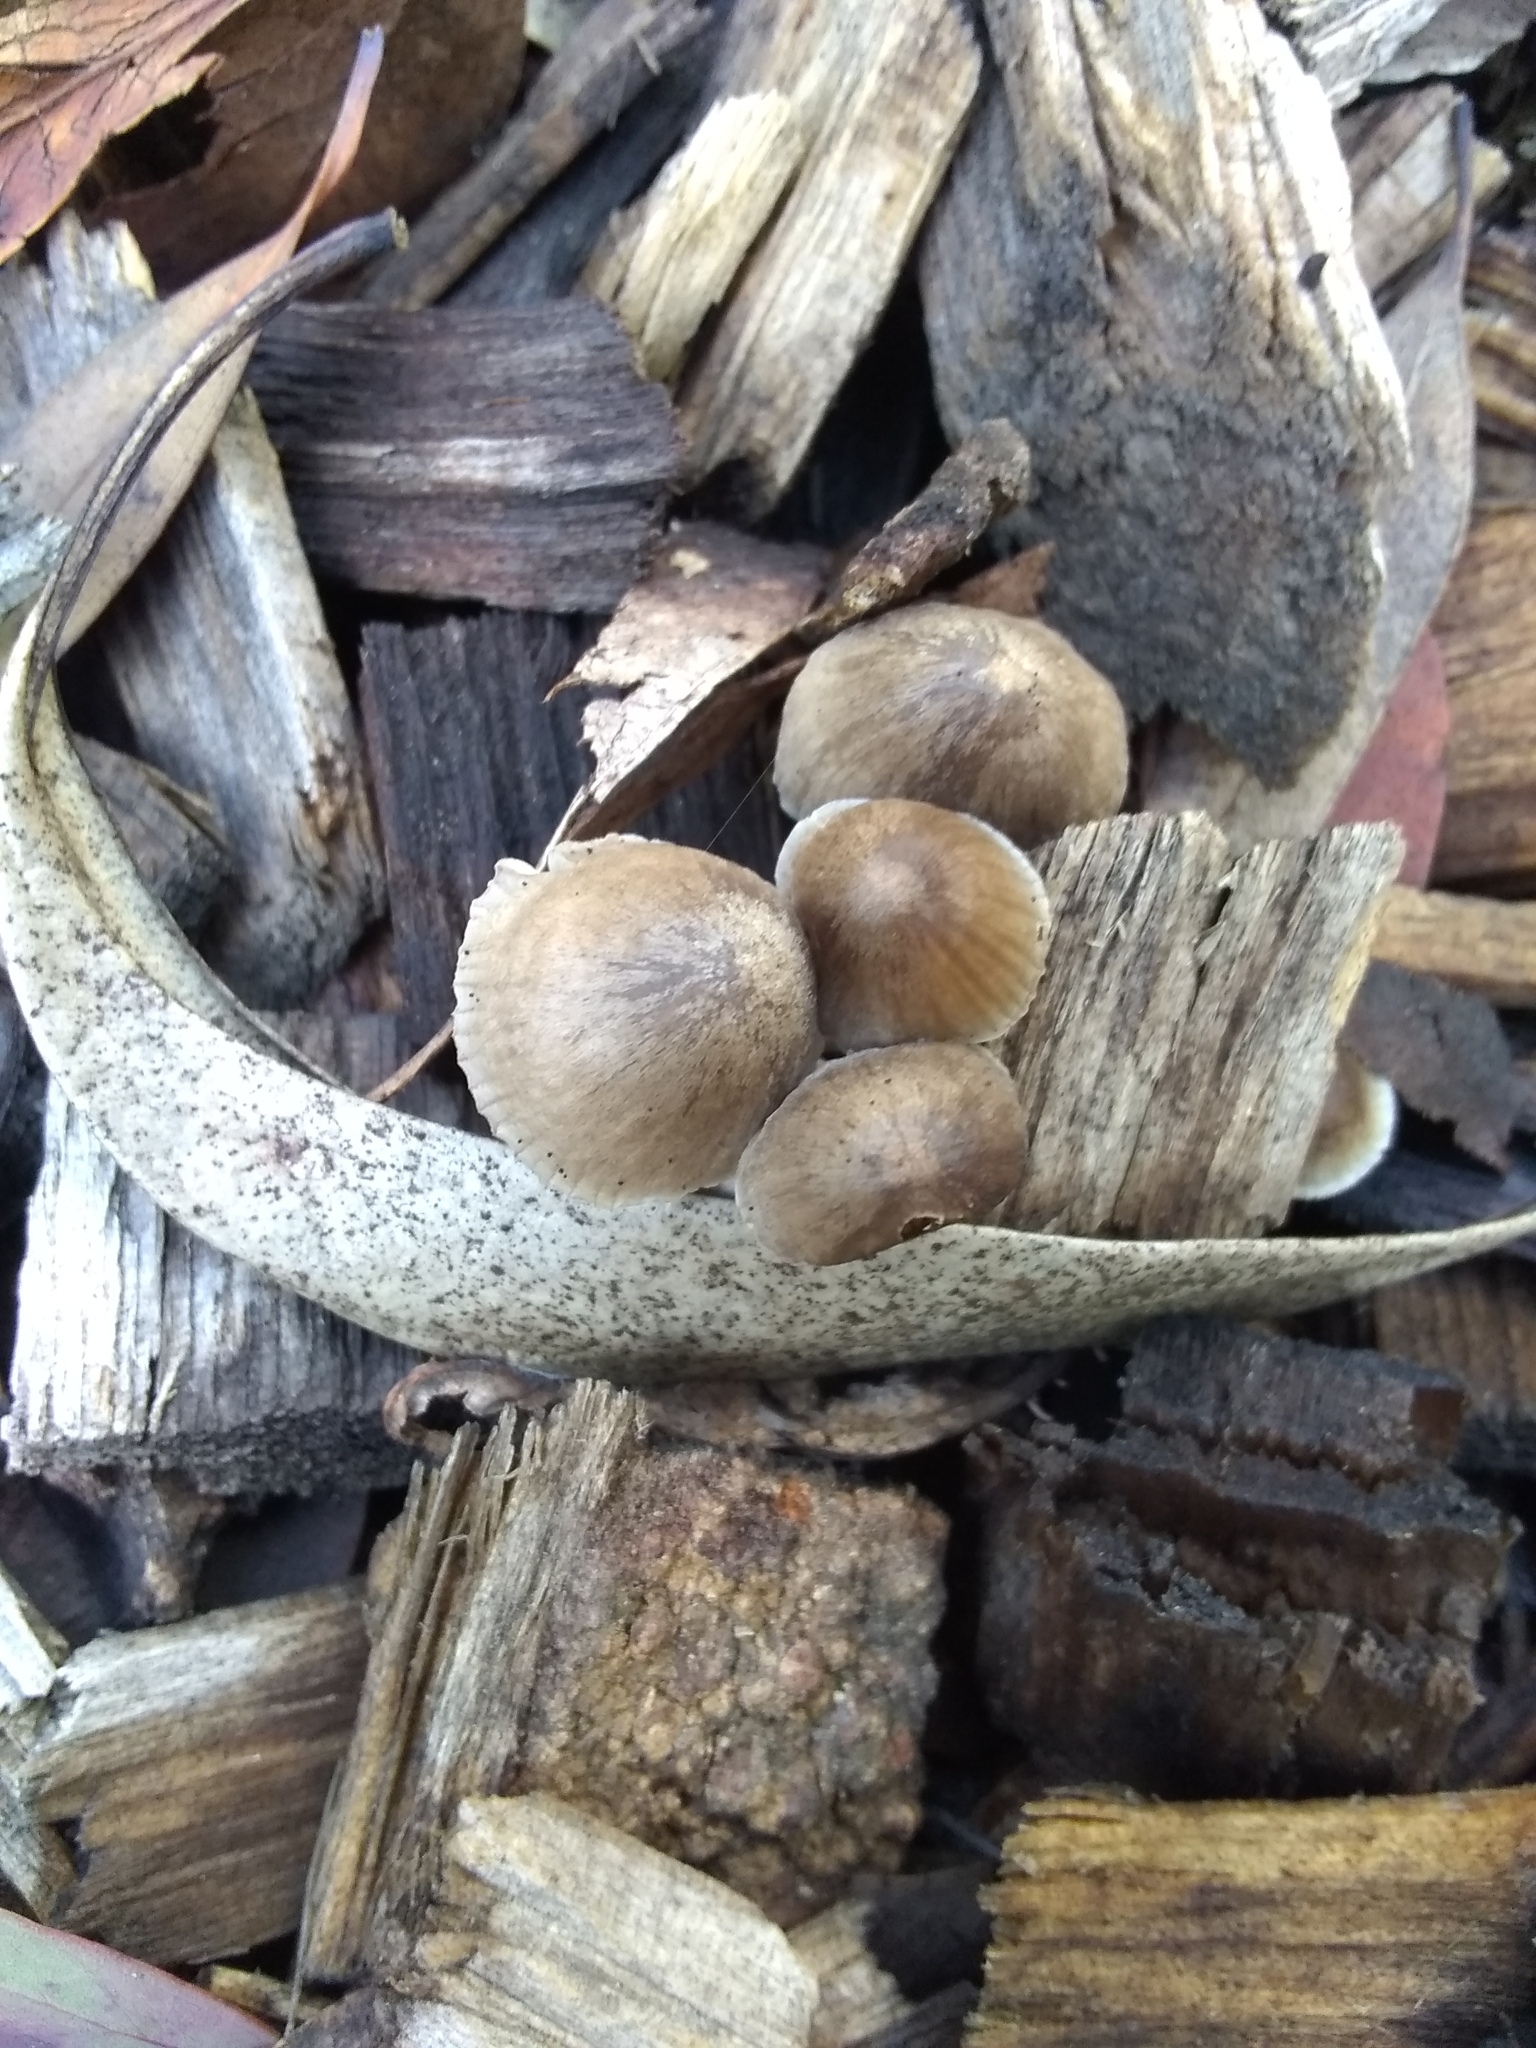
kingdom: Fungi
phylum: Basidiomycota
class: Agaricomycetes
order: Agaricales
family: Mycenaceae
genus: Mycena
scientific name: Mycena leptocephala
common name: Nitrous bonnet
